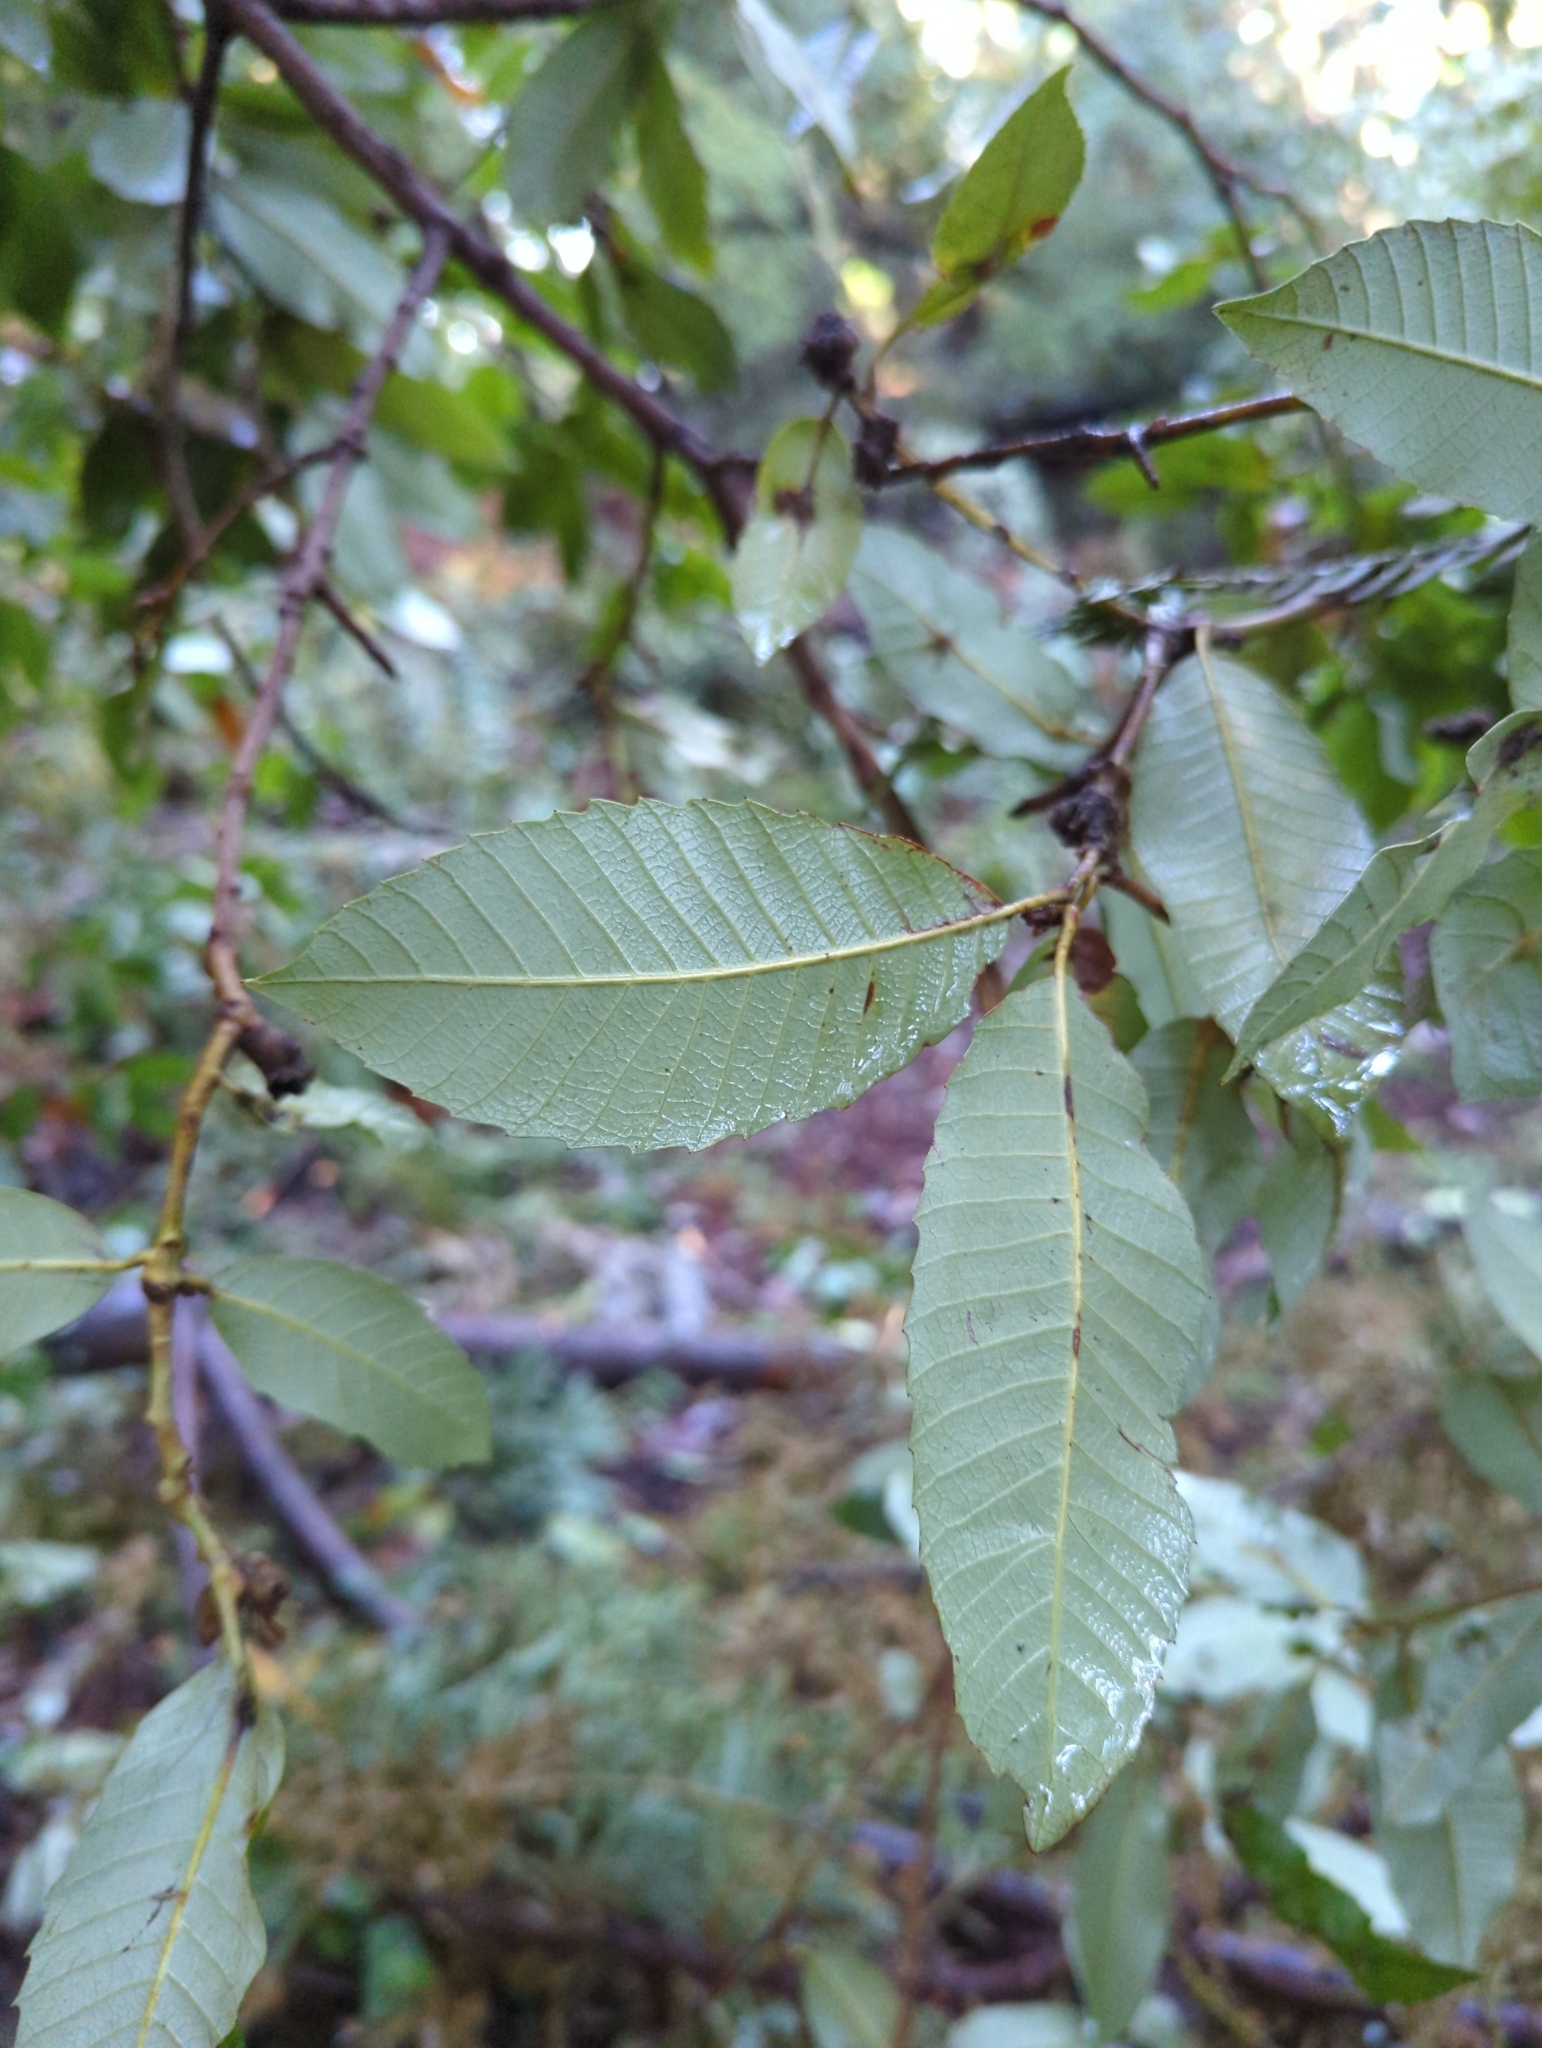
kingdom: Plantae
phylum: Tracheophyta
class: Magnoliopsida
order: Fagales
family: Fagaceae
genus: Notholithocarpus
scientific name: Notholithocarpus densiflorus
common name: Tan bark oak
